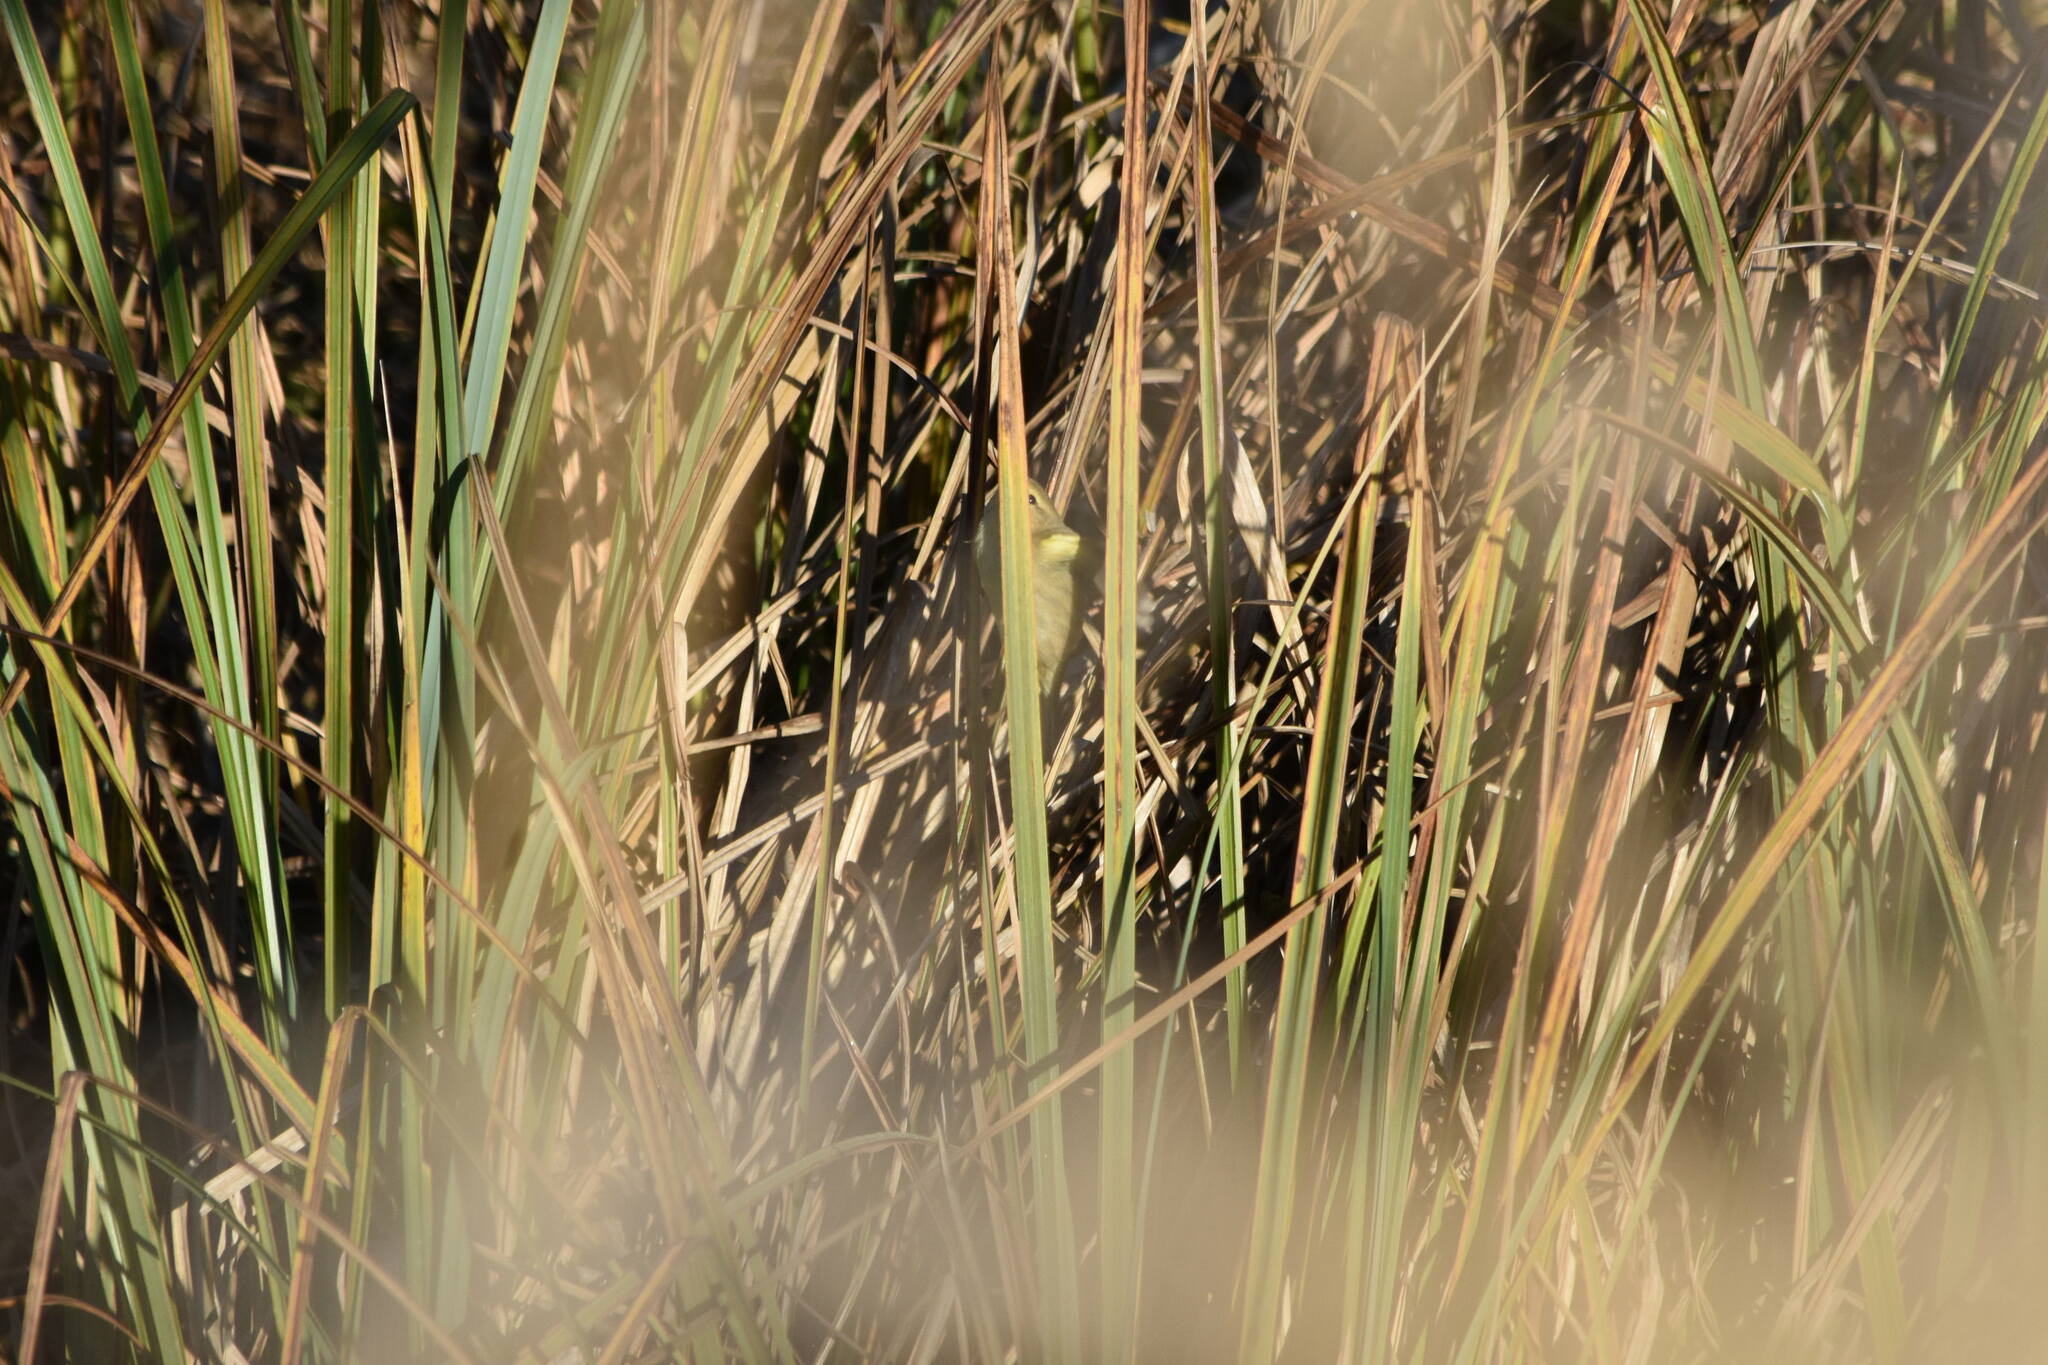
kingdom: Animalia
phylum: Chordata
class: Aves
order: Passeriformes
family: Phylloscopidae
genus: Phylloscopus
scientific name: Phylloscopus collybita
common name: Common chiffchaff
